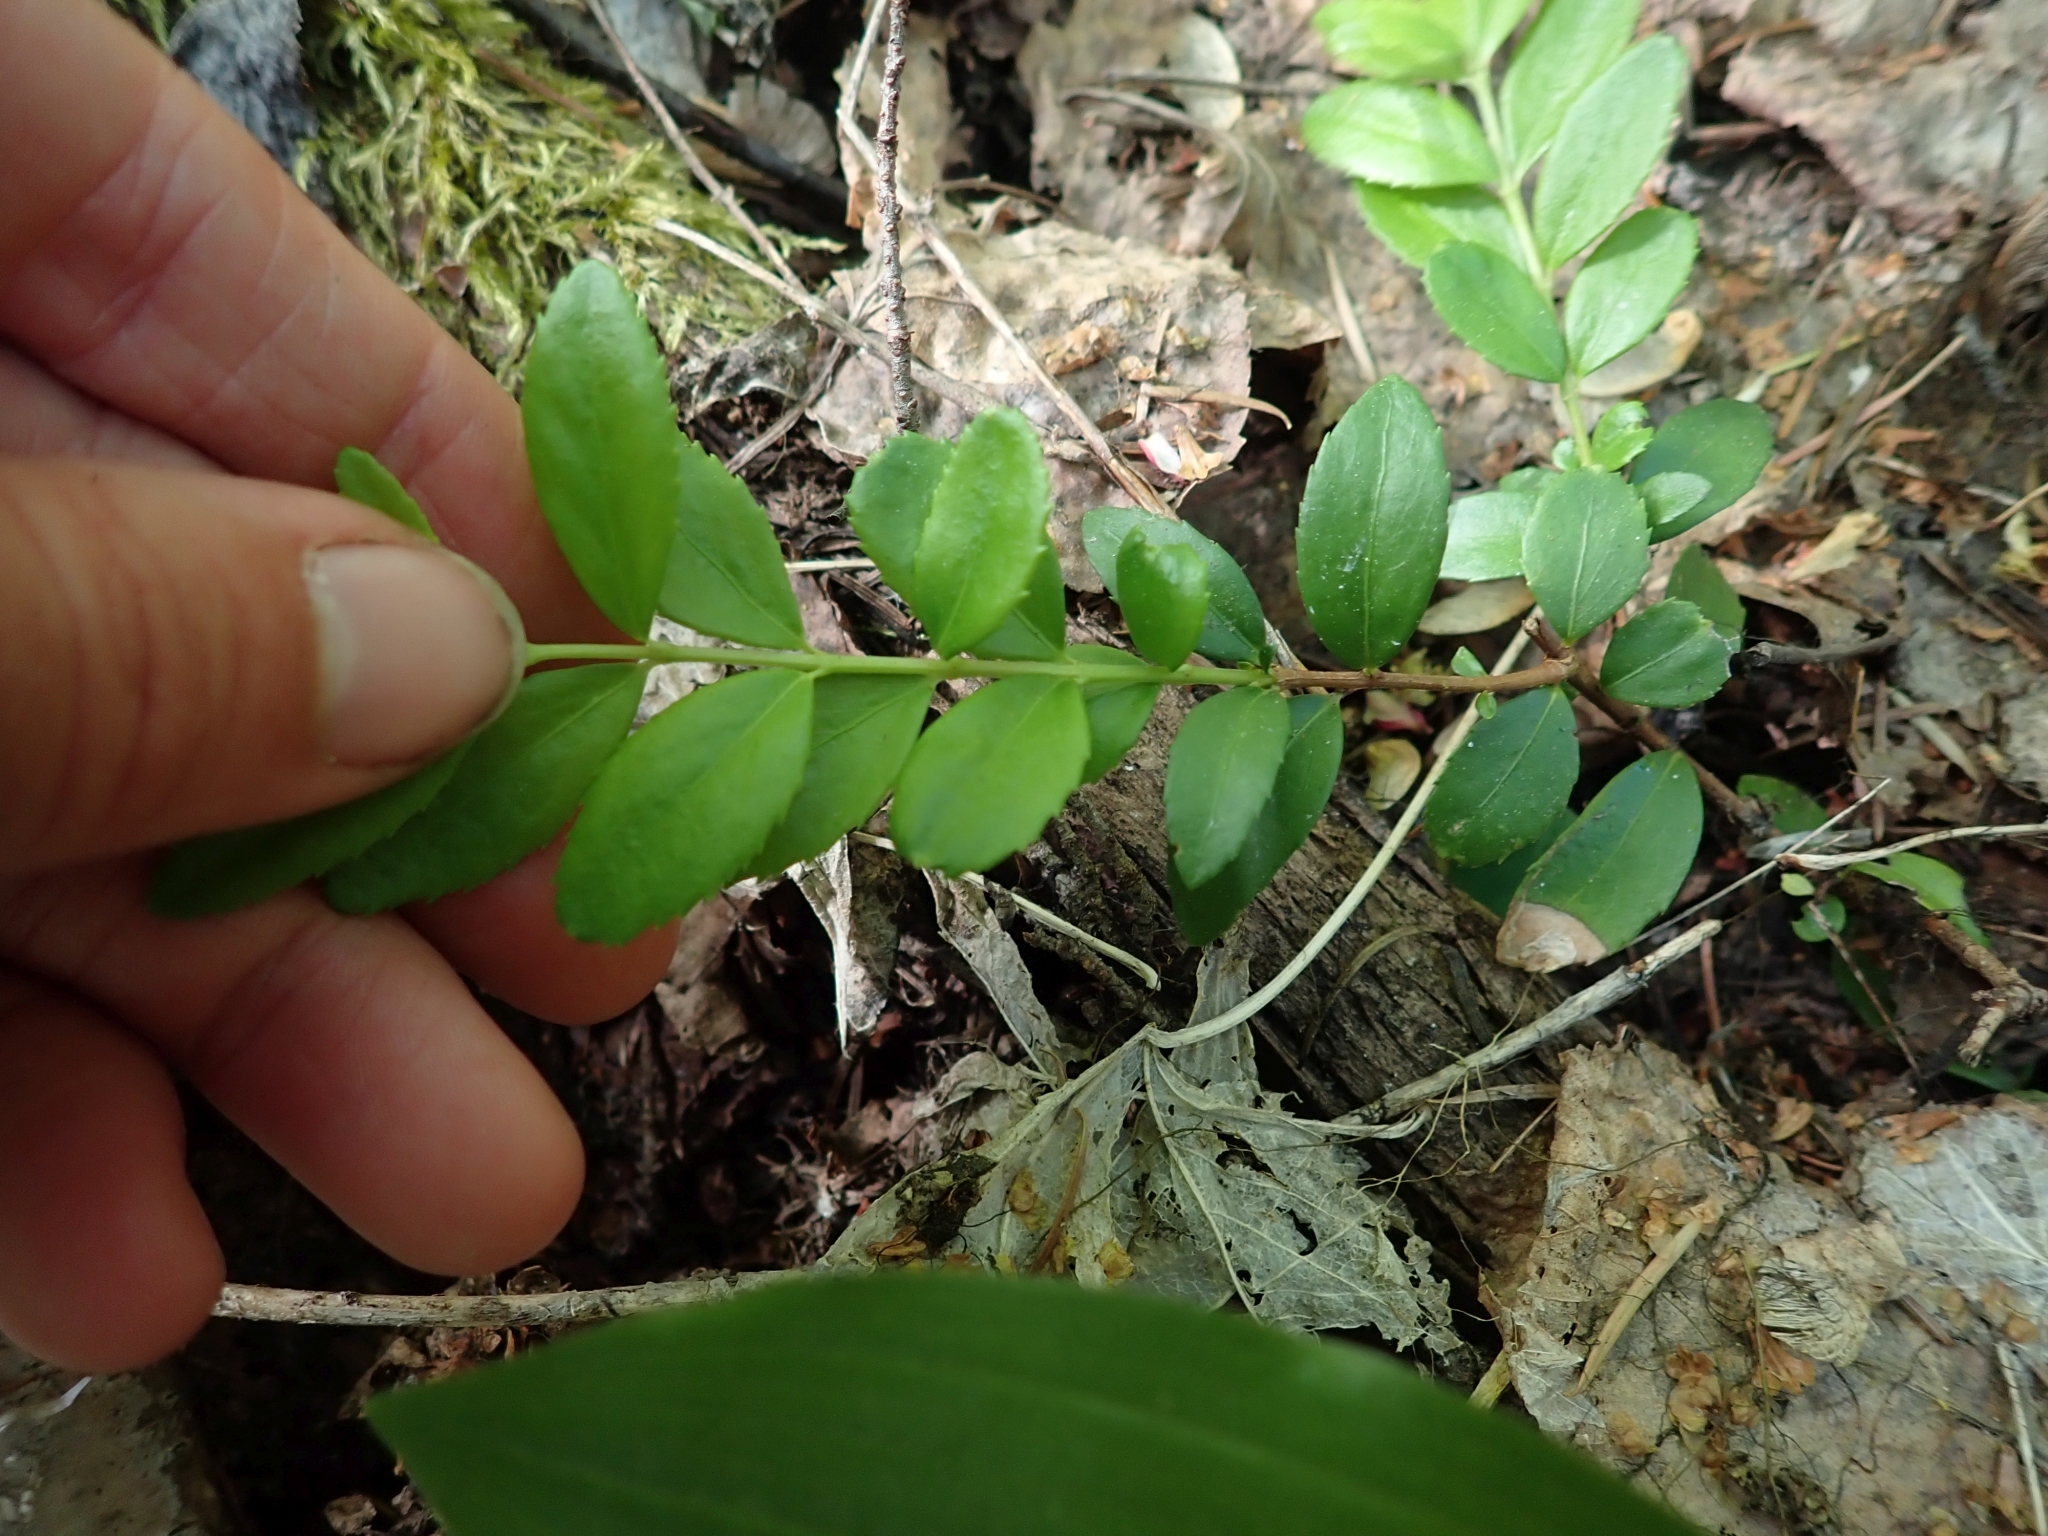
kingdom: Plantae
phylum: Tracheophyta
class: Magnoliopsida
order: Celastrales
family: Celastraceae
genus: Paxistima
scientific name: Paxistima myrsinites
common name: Mountain-lover
